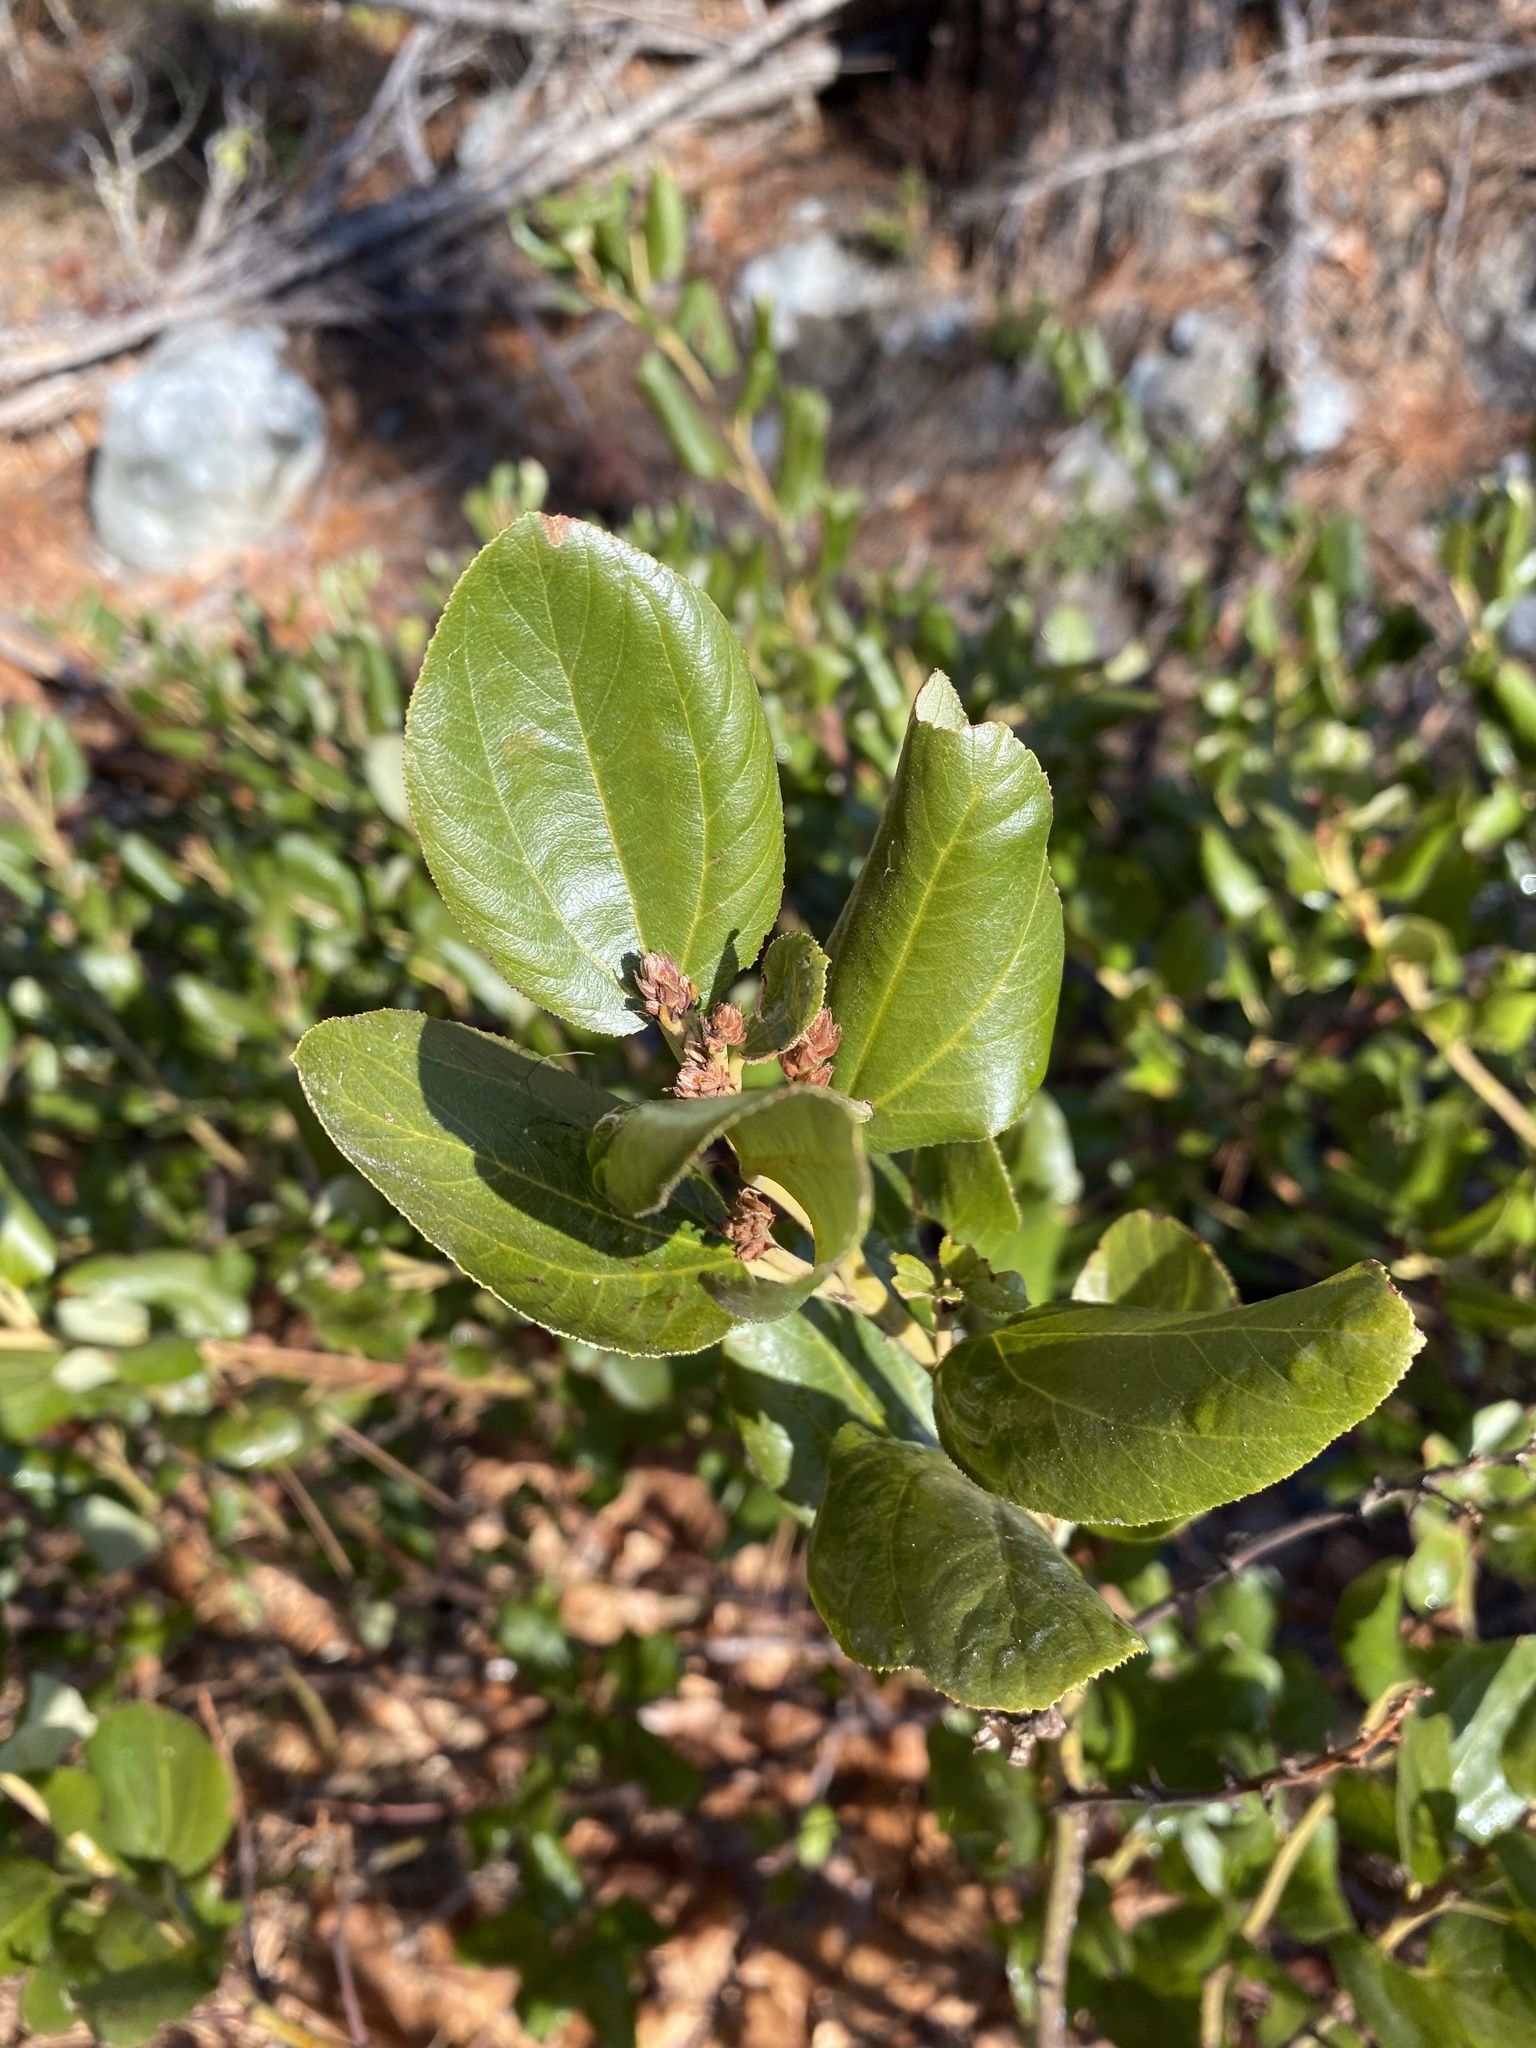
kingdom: Plantae
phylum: Tracheophyta
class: Magnoliopsida
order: Rosales
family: Rhamnaceae
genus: Ceanothus
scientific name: Ceanothus velutinus
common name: Snowbrush
